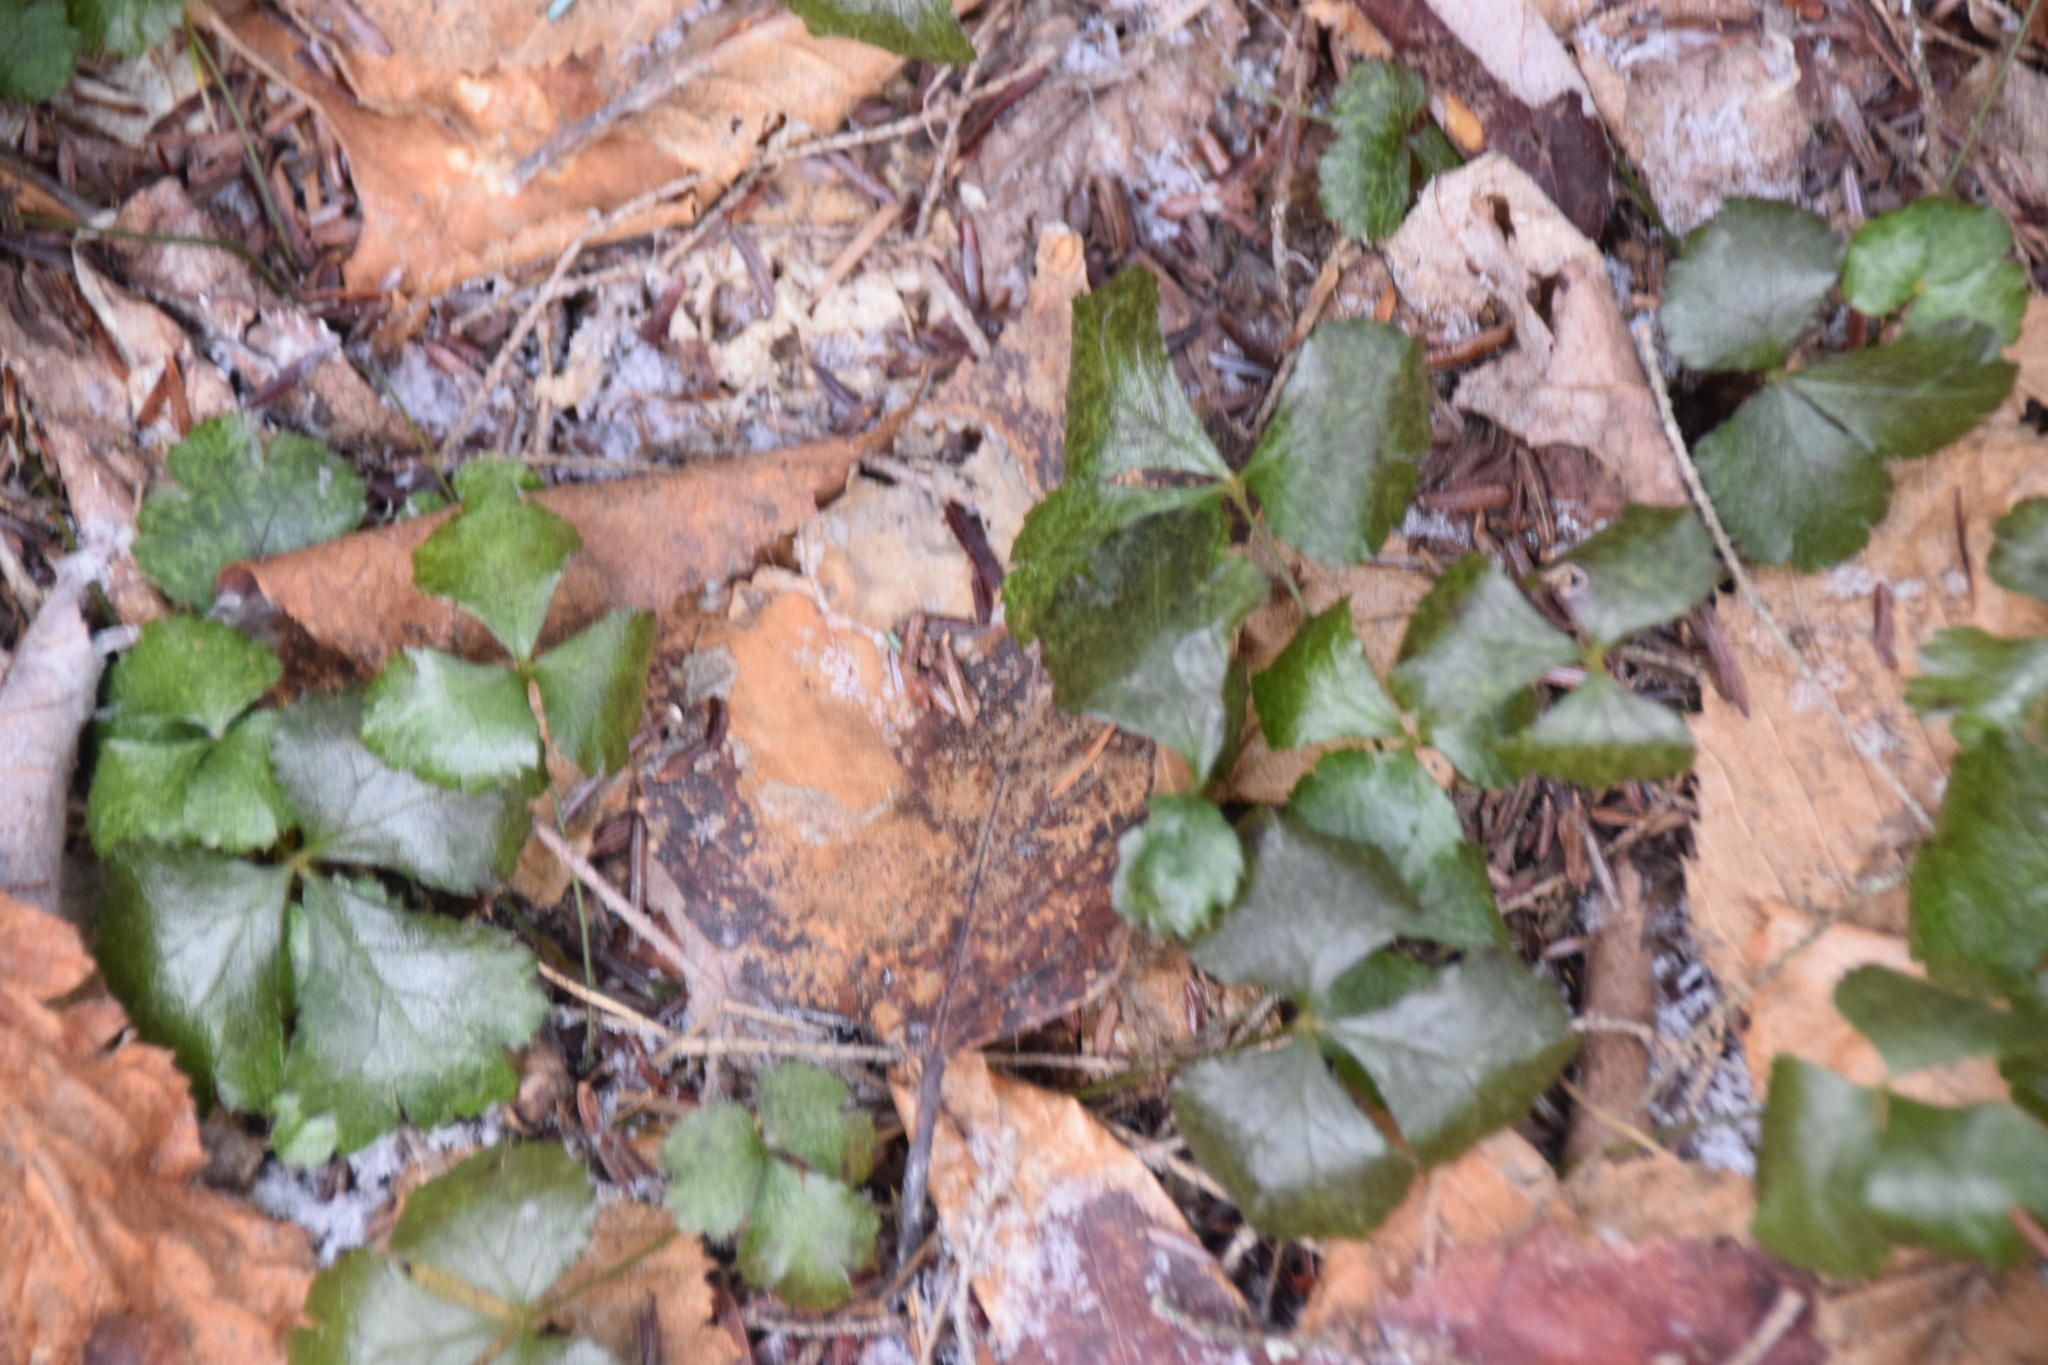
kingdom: Plantae
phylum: Tracheophyta
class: Magnoliopsida
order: Ranunculales
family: Ranunculaceae
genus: Coptis
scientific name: Coptis trifolia
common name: Canker-root
